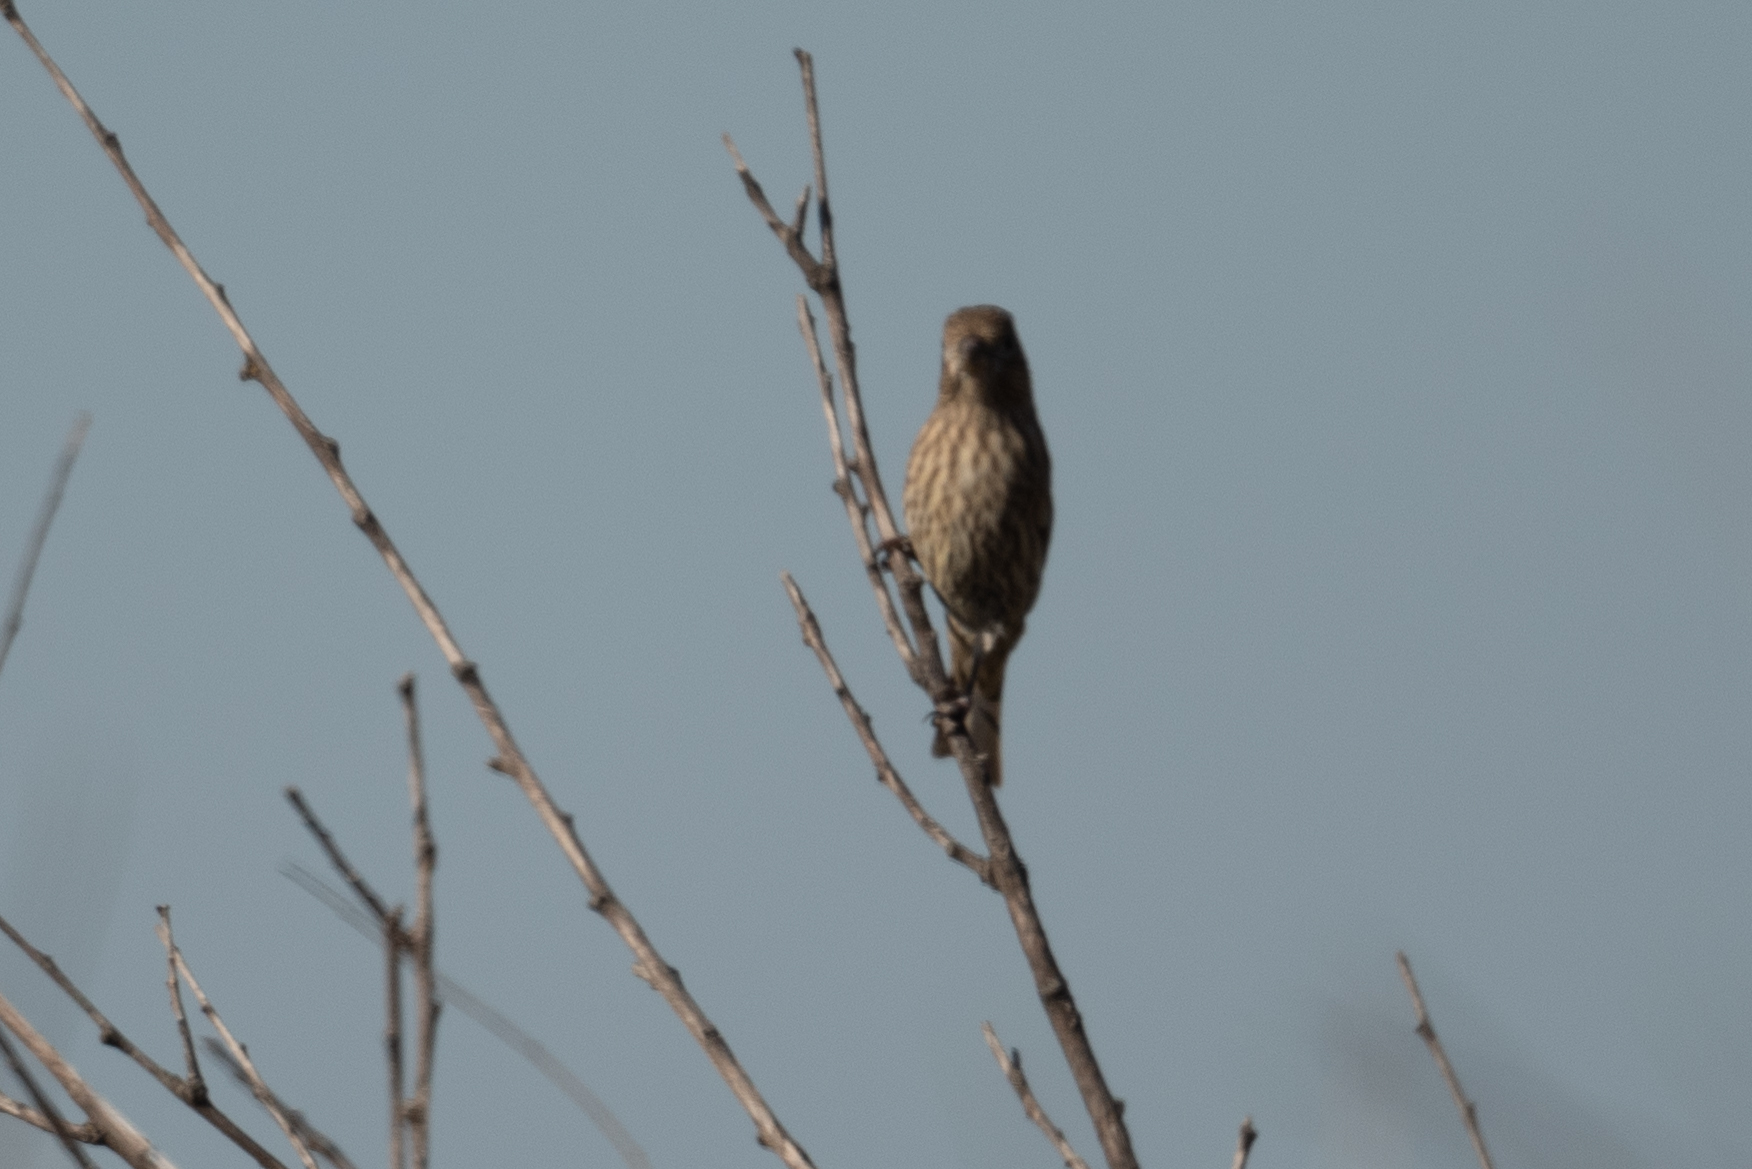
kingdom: Animalia
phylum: Chordata
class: Aves
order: Passeriformes
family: Fringillidae
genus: Haemorhous
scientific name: Haemorhous mexicanus
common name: House finch
